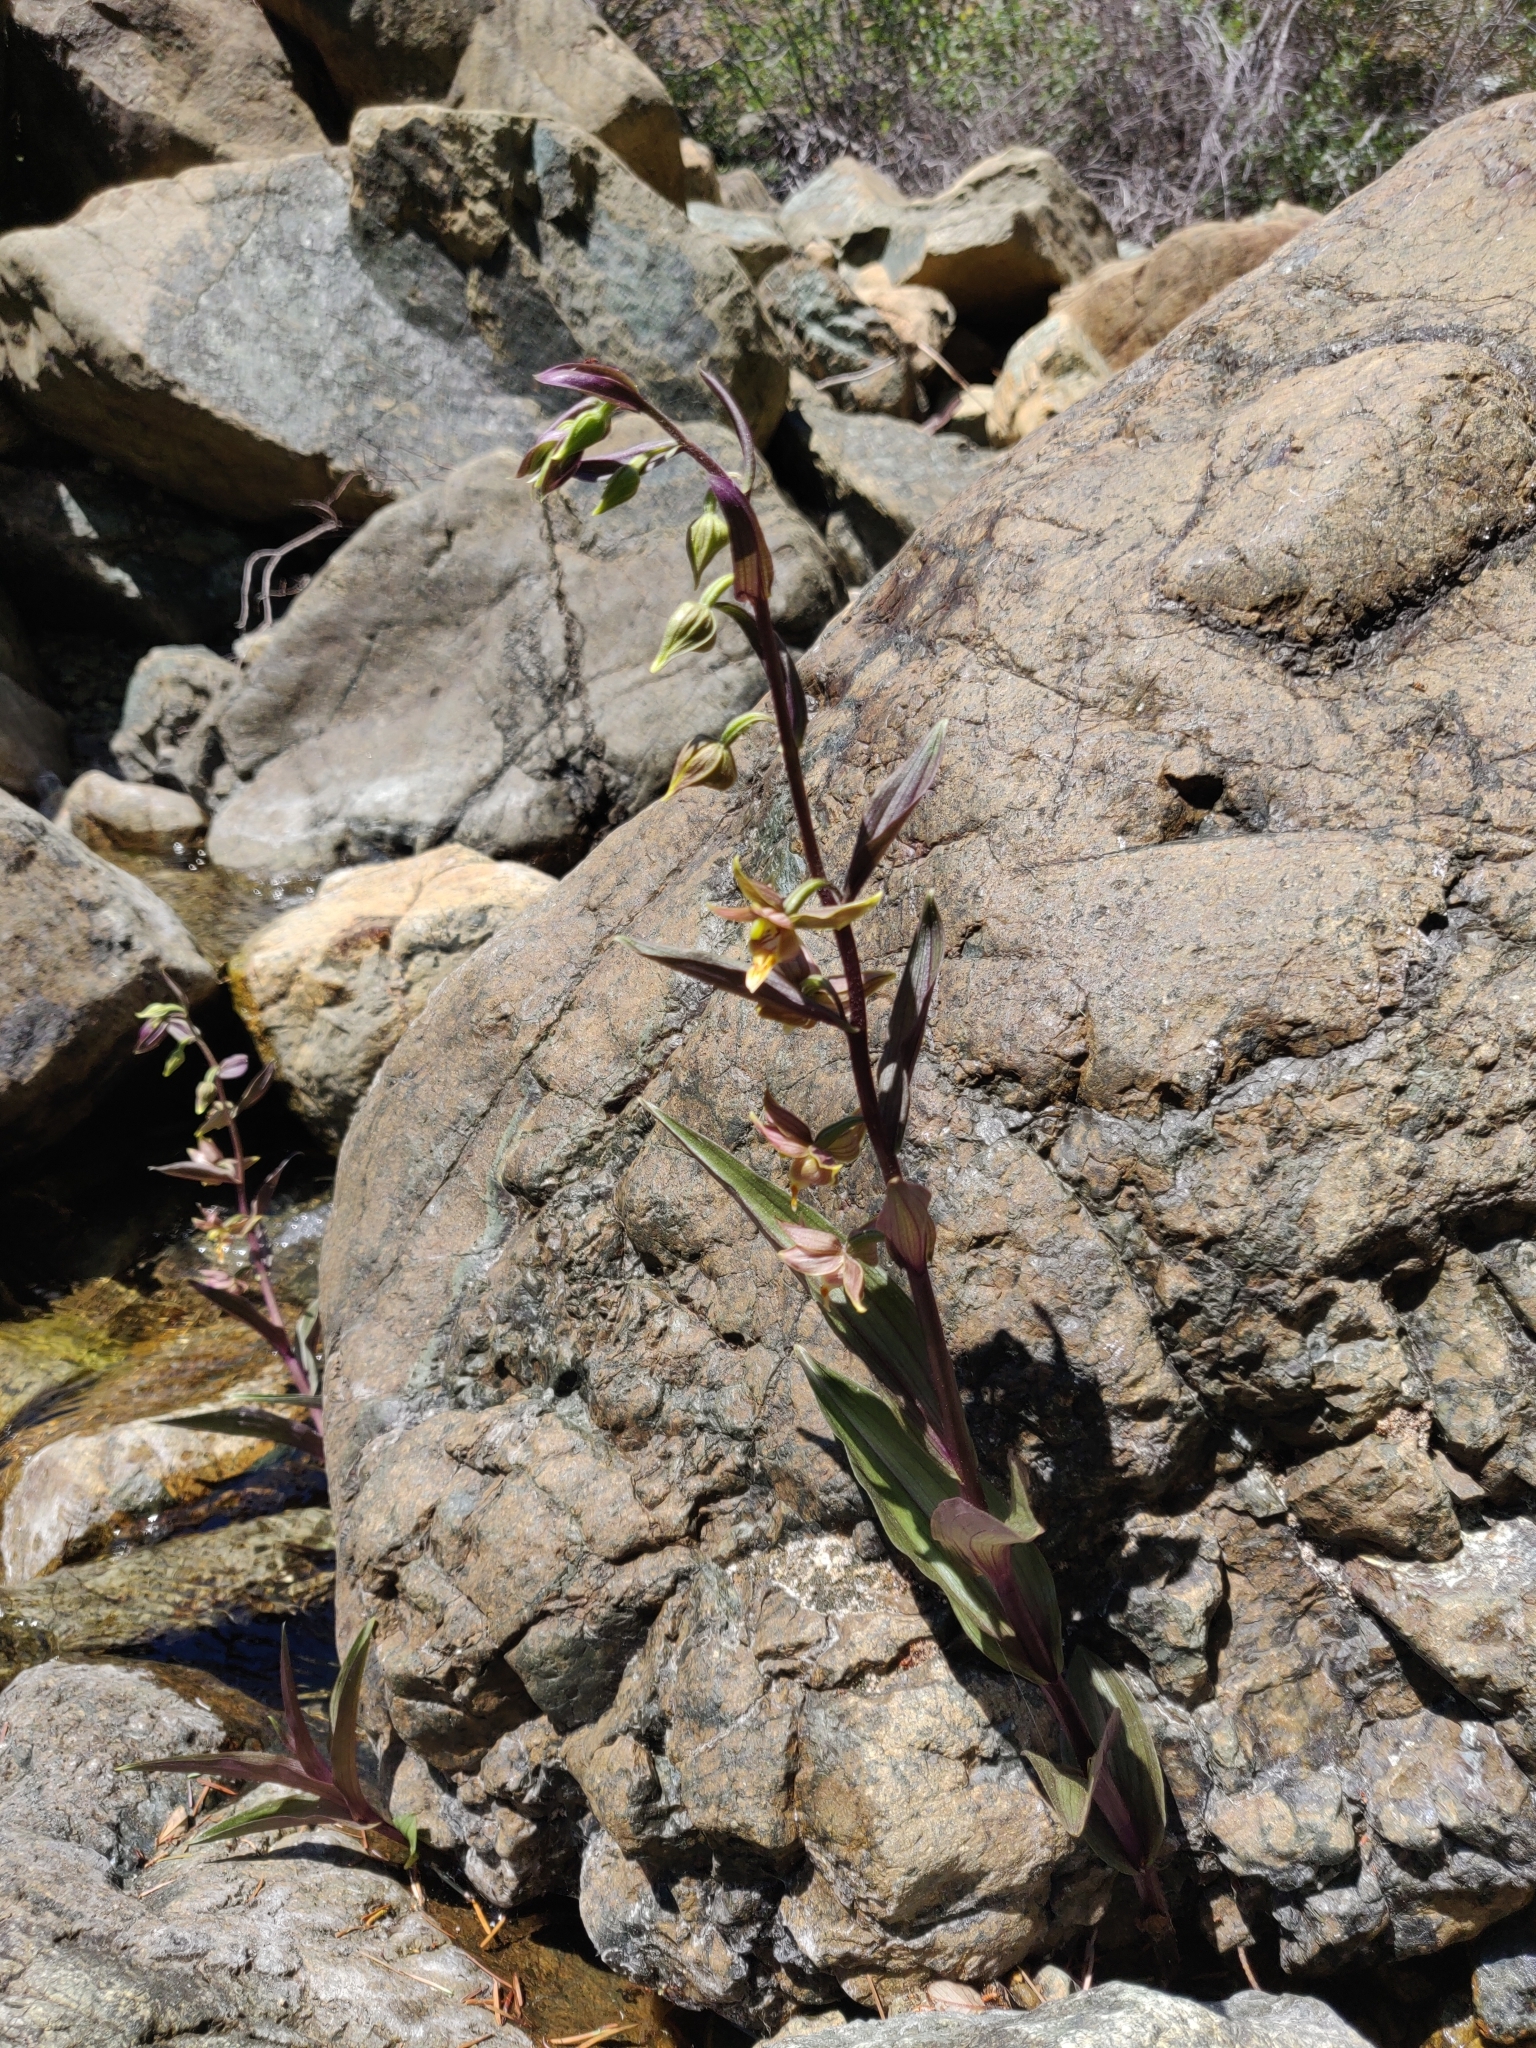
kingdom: Plantae
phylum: Tracheophyta
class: Liliopsida
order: Asparagales
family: Orchidaceae
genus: Epipactis
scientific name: Epipactis gigantea
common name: Chatterbox
